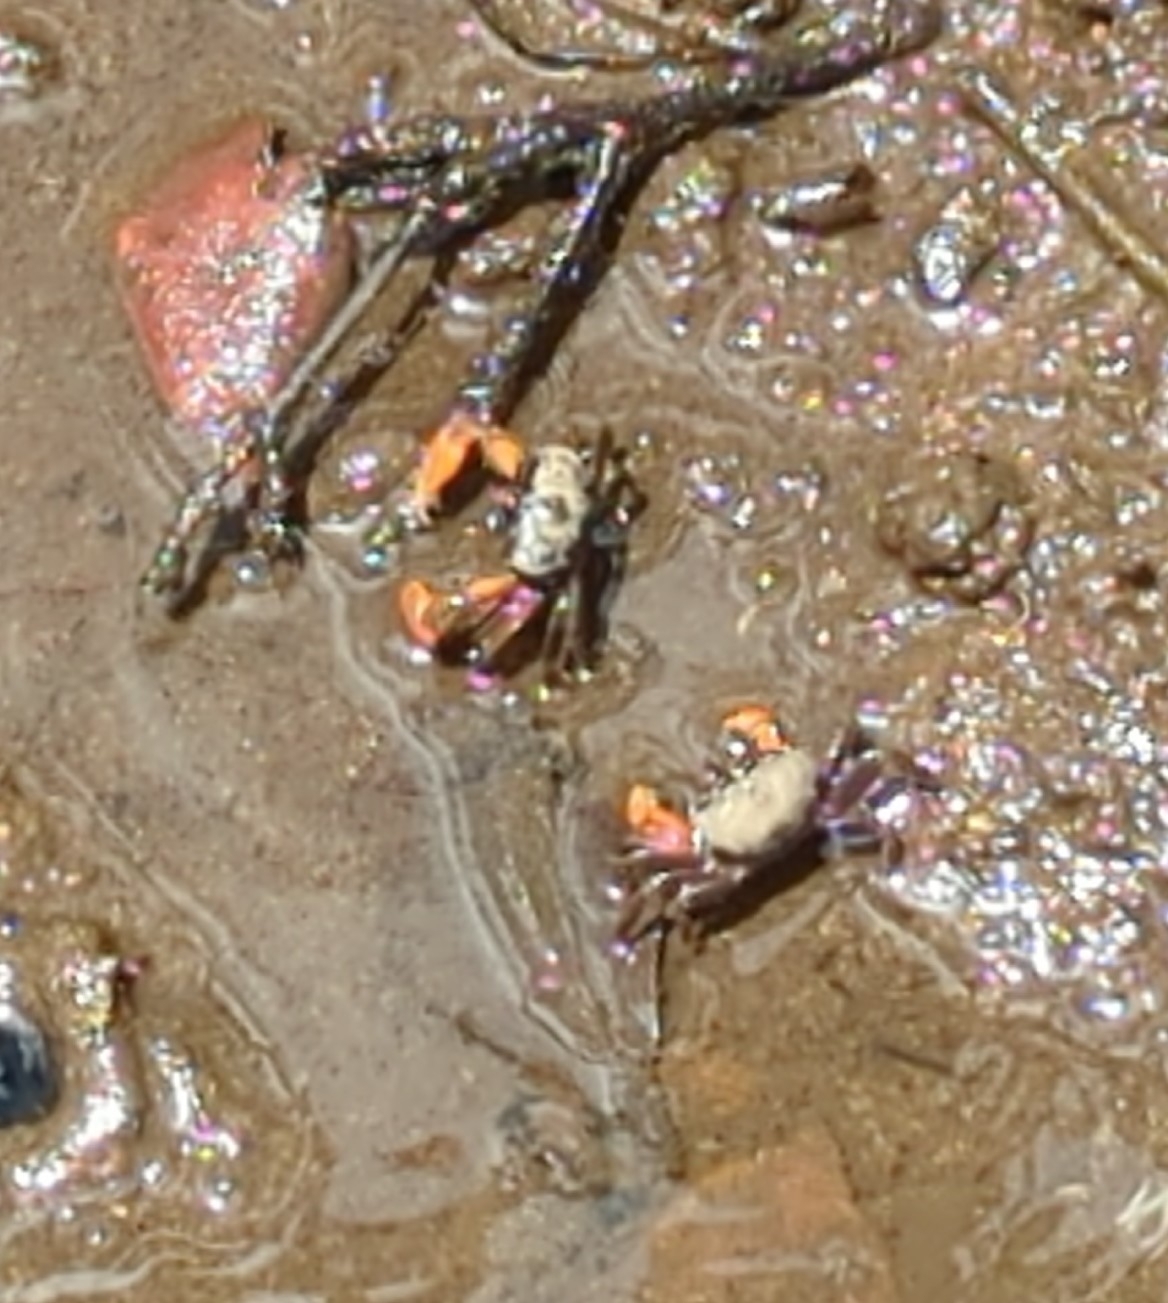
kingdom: Animalia
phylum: Arthropoda
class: Malacostraca
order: Decapoda
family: Heloeciidae
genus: Heloecius
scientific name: Heloecius cordiformis
